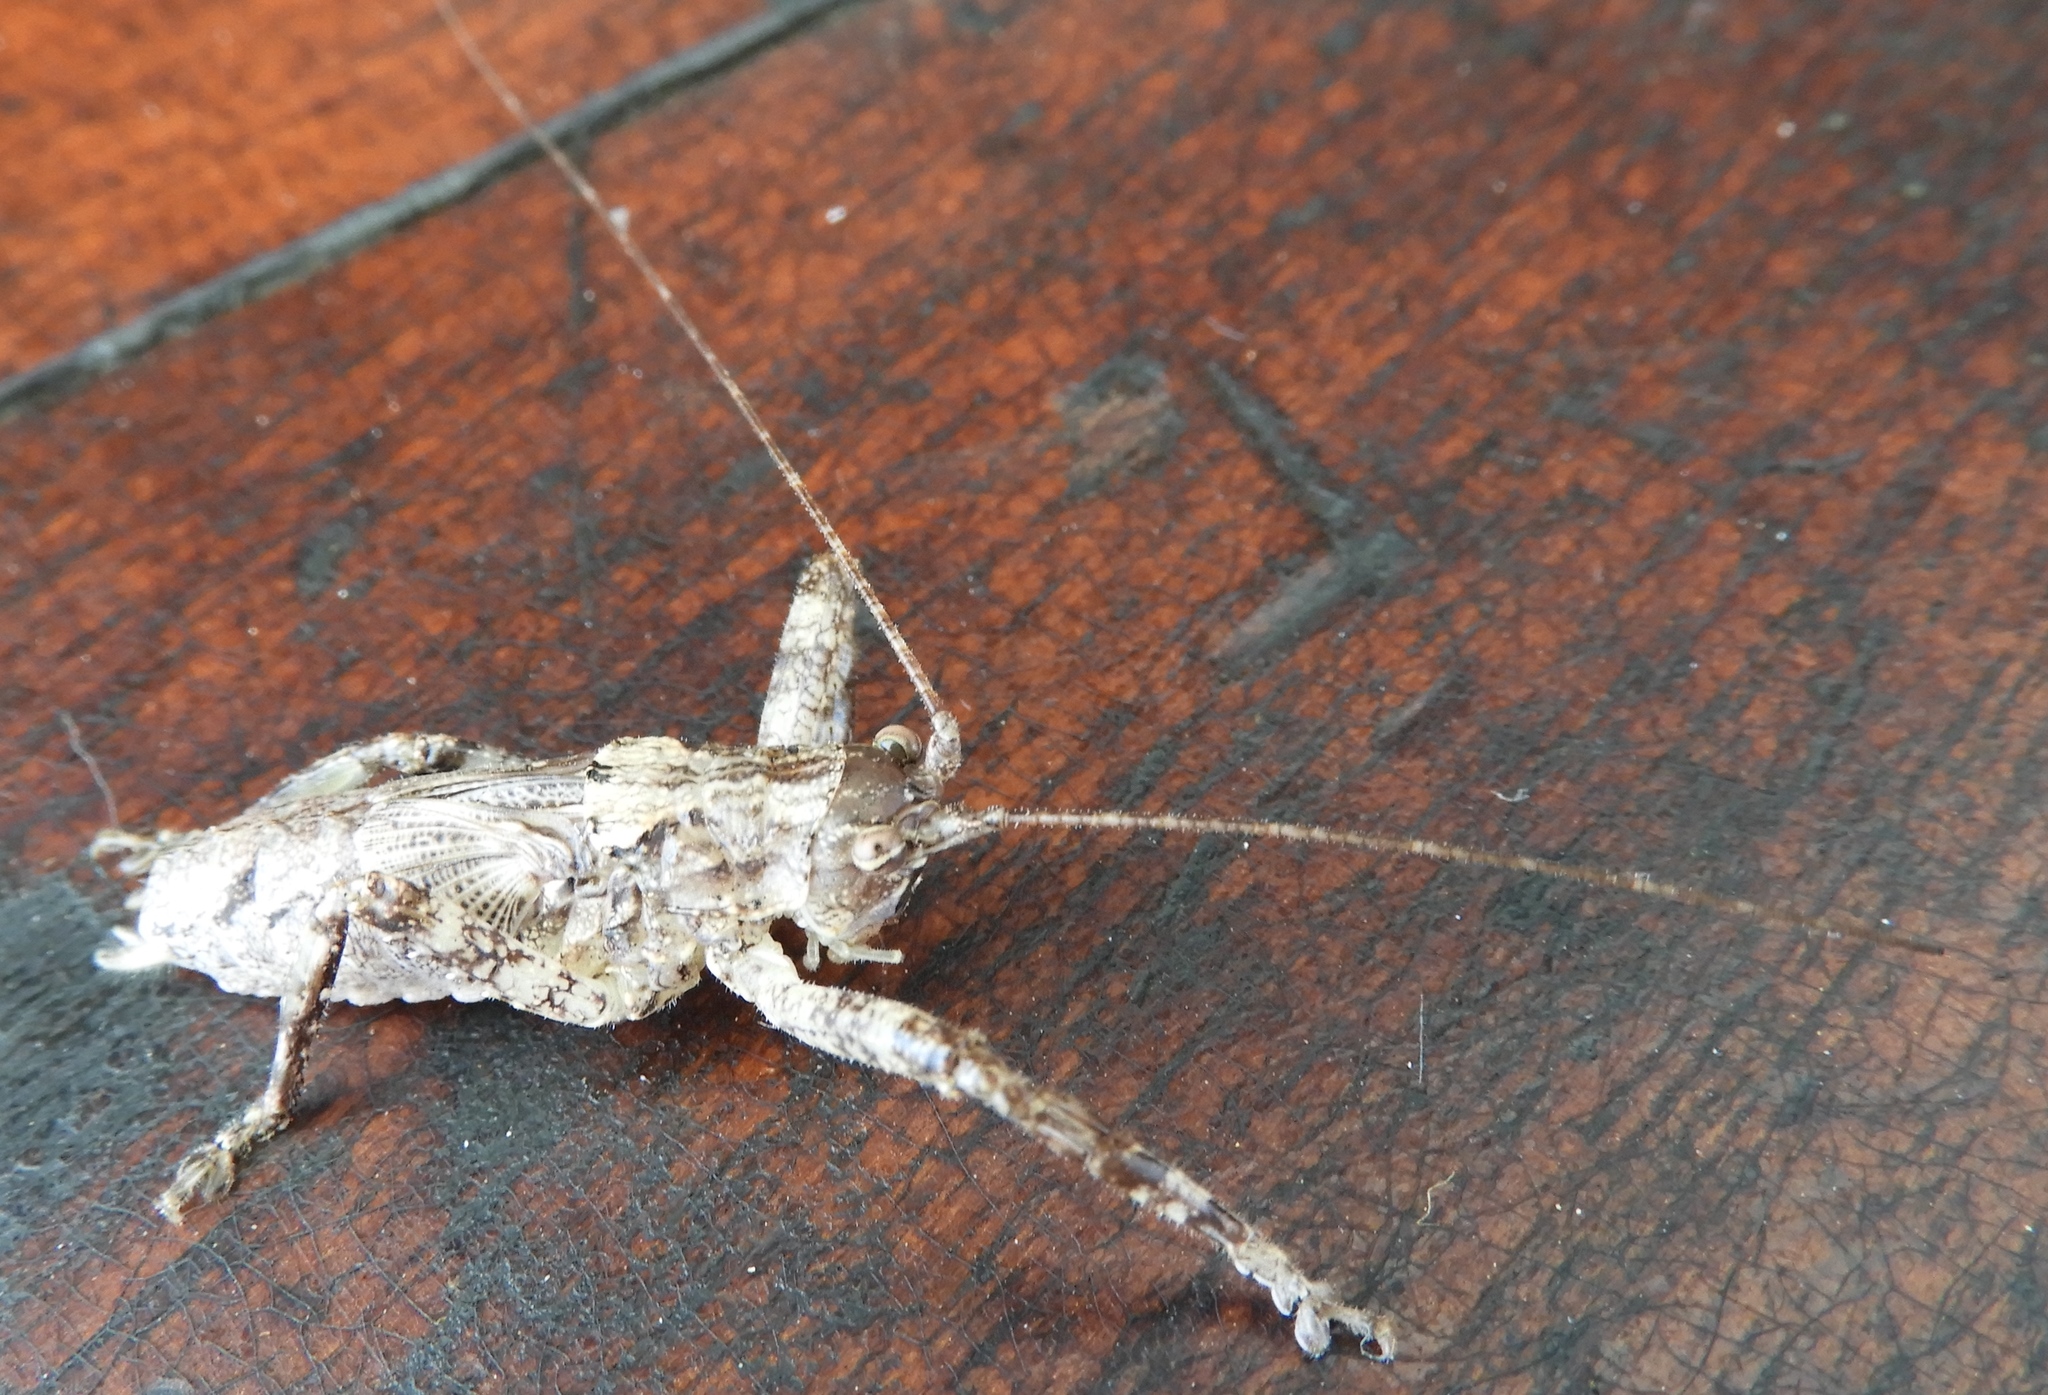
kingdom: Animalia
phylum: Arthropoda
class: Insecta
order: Orthoptera
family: Tettigoniidae
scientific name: Tettigoniidae
